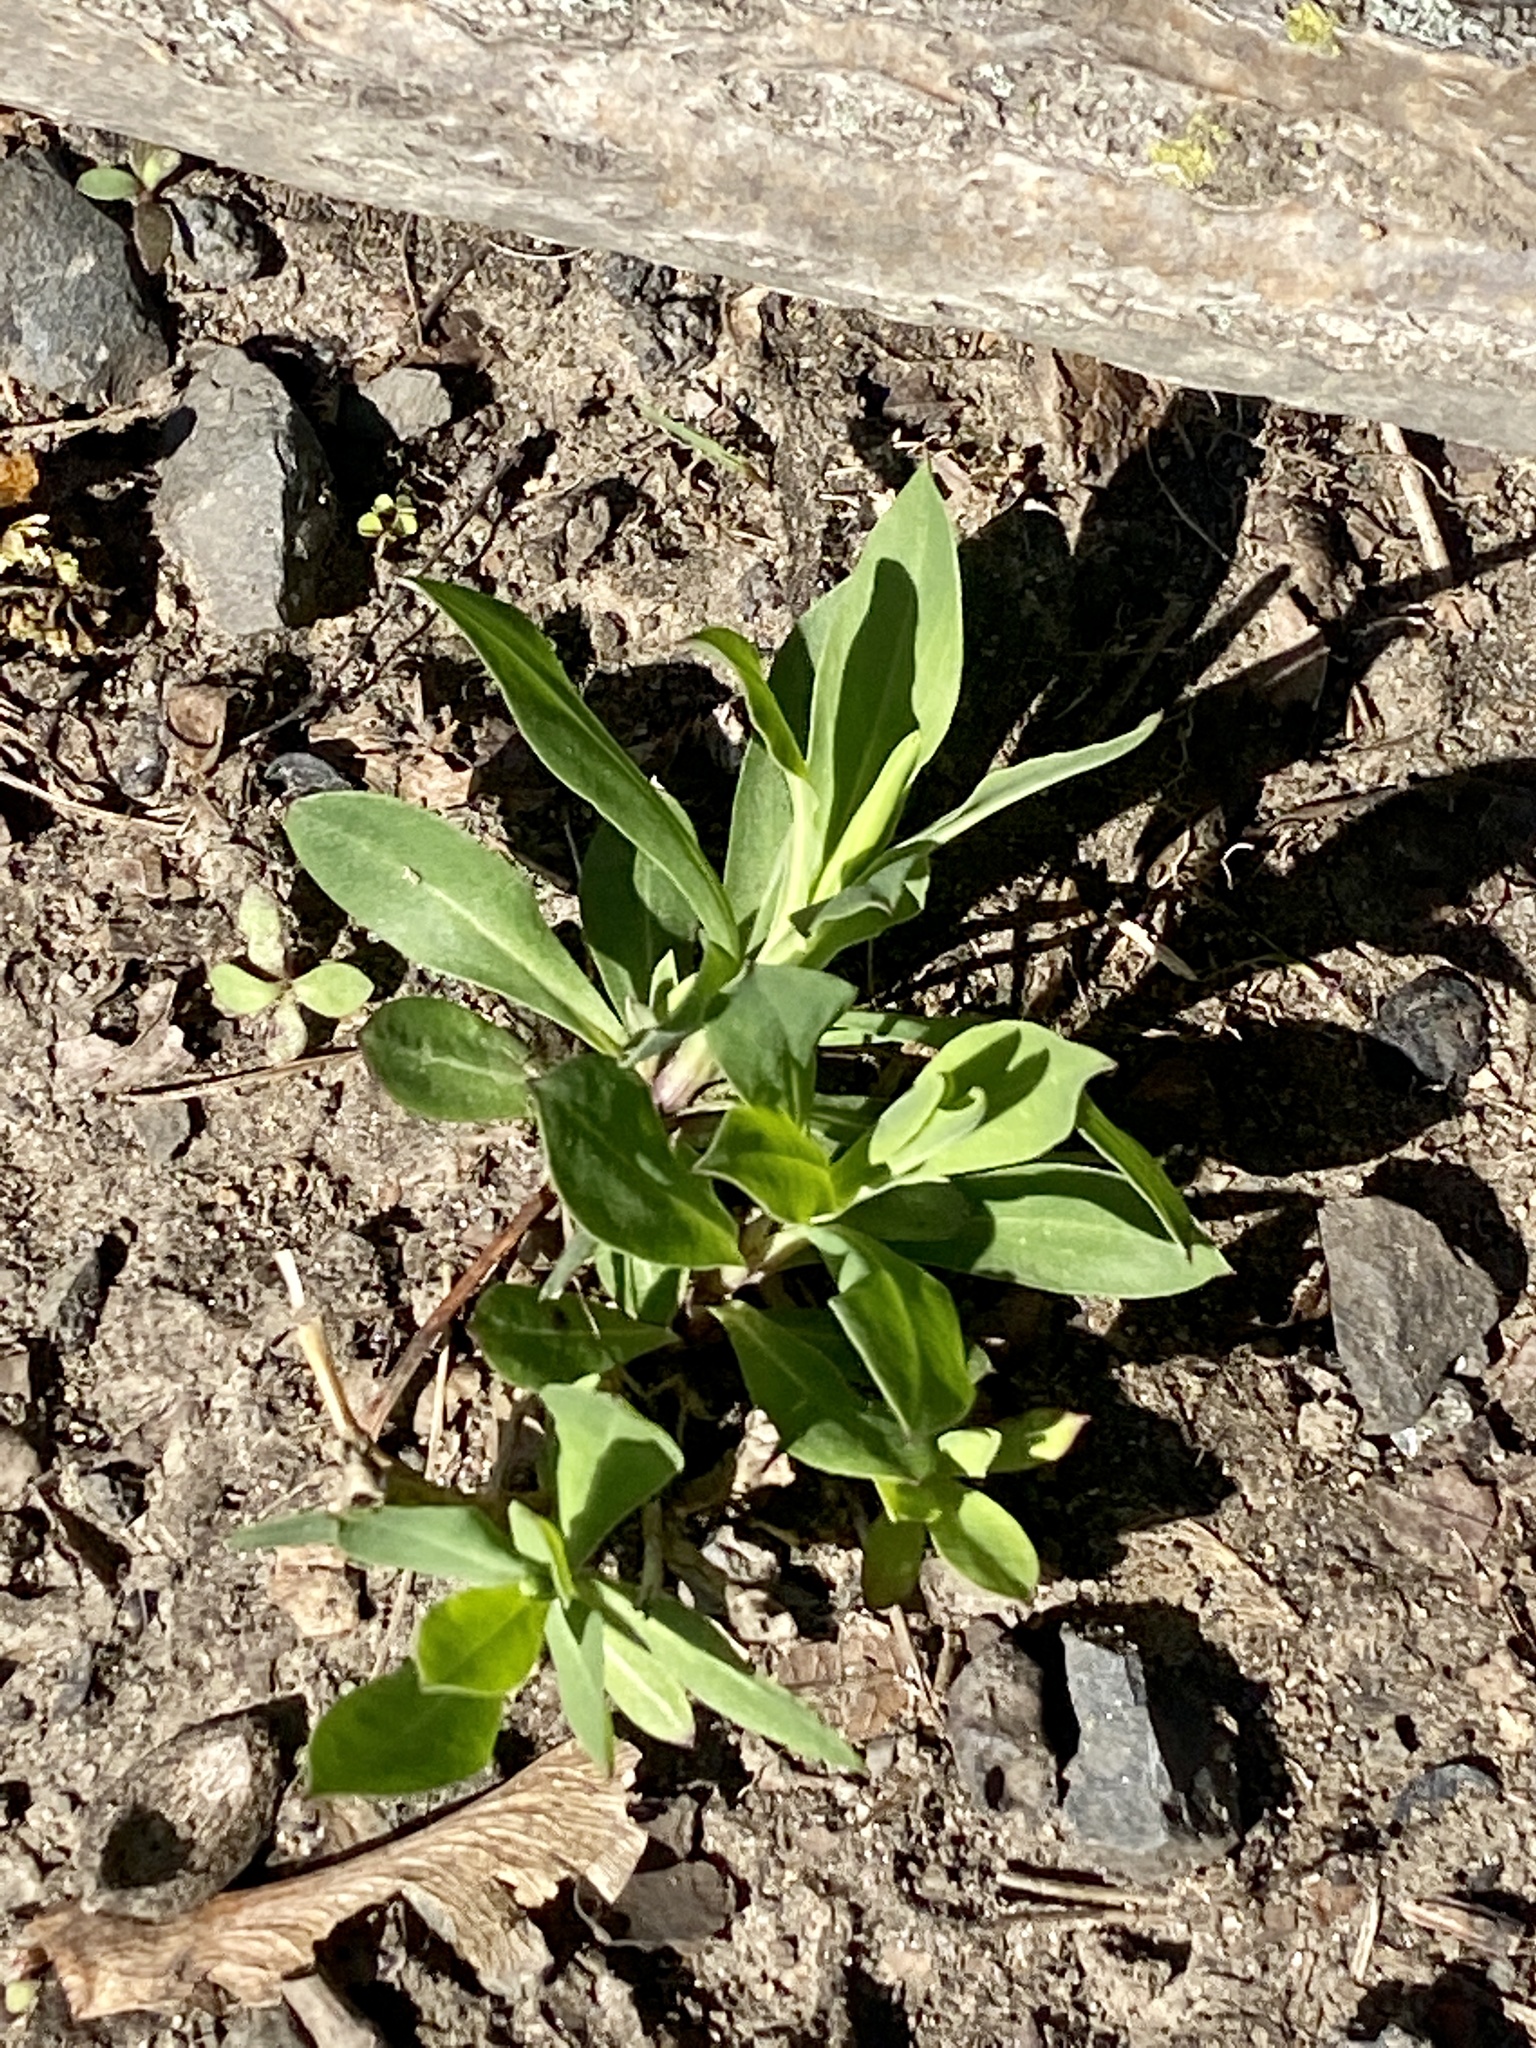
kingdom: Plantae
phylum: Tracheophyta
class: Magnoliopsida
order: Caryophyllales
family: Caryophyllaceae
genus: Silene
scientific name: Silene vulgaris
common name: Bladder campion
